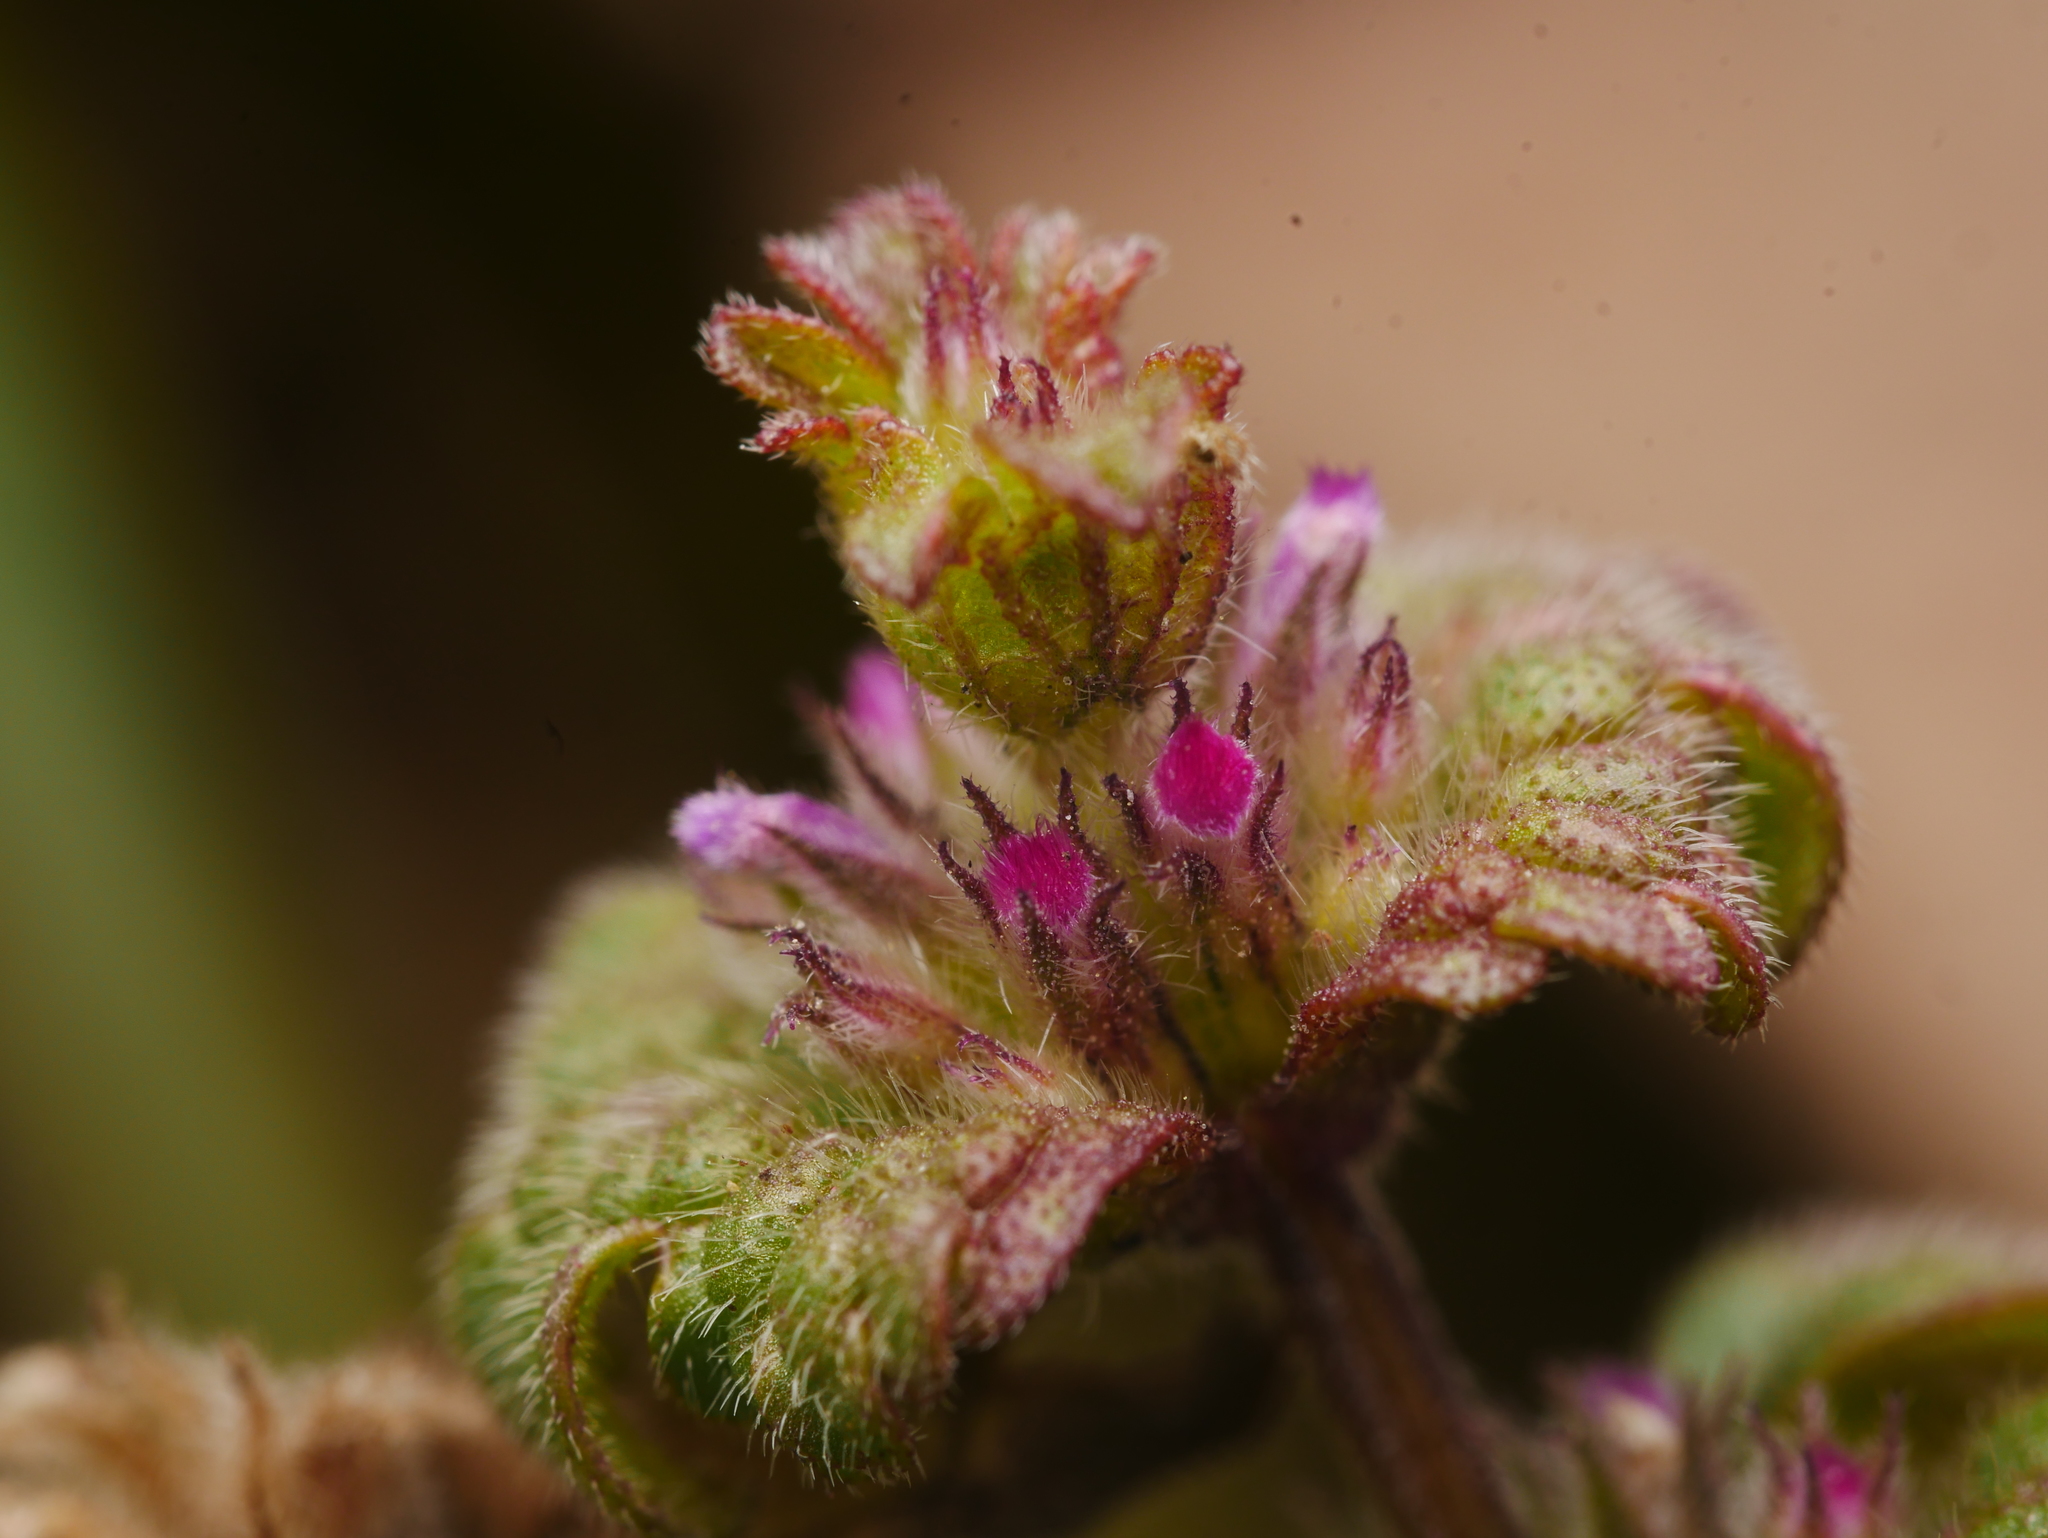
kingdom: Plantae
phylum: Tracheophyta
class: Magnoliopsida
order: Lamiales
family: Lamiaceae
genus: Lamium
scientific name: Lamium amplexicaule
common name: Henbit dead-nettle
